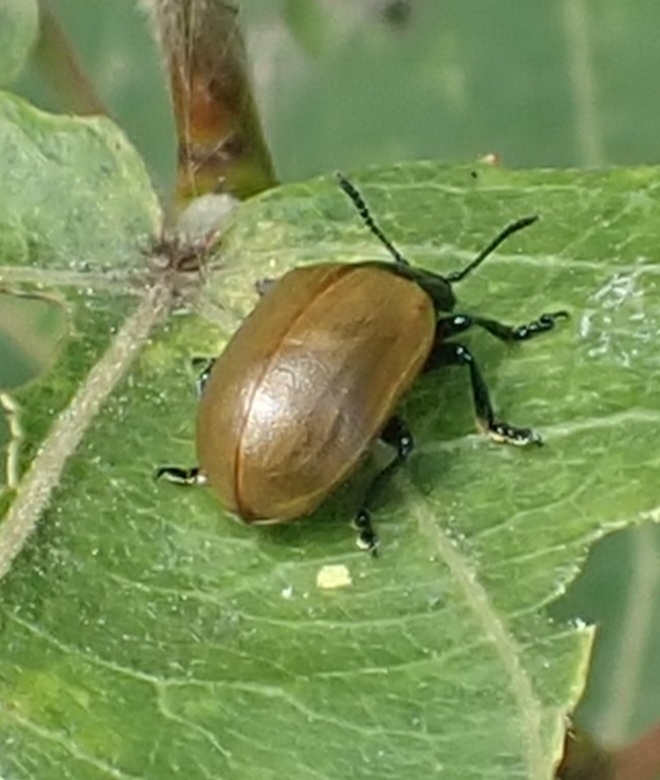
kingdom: Animalia
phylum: Arthropoda
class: Insecta
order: Coleoptera
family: Chrysomelidae
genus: Chrysomela
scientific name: Chrysomela populi
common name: Red poplar leaf beetle
